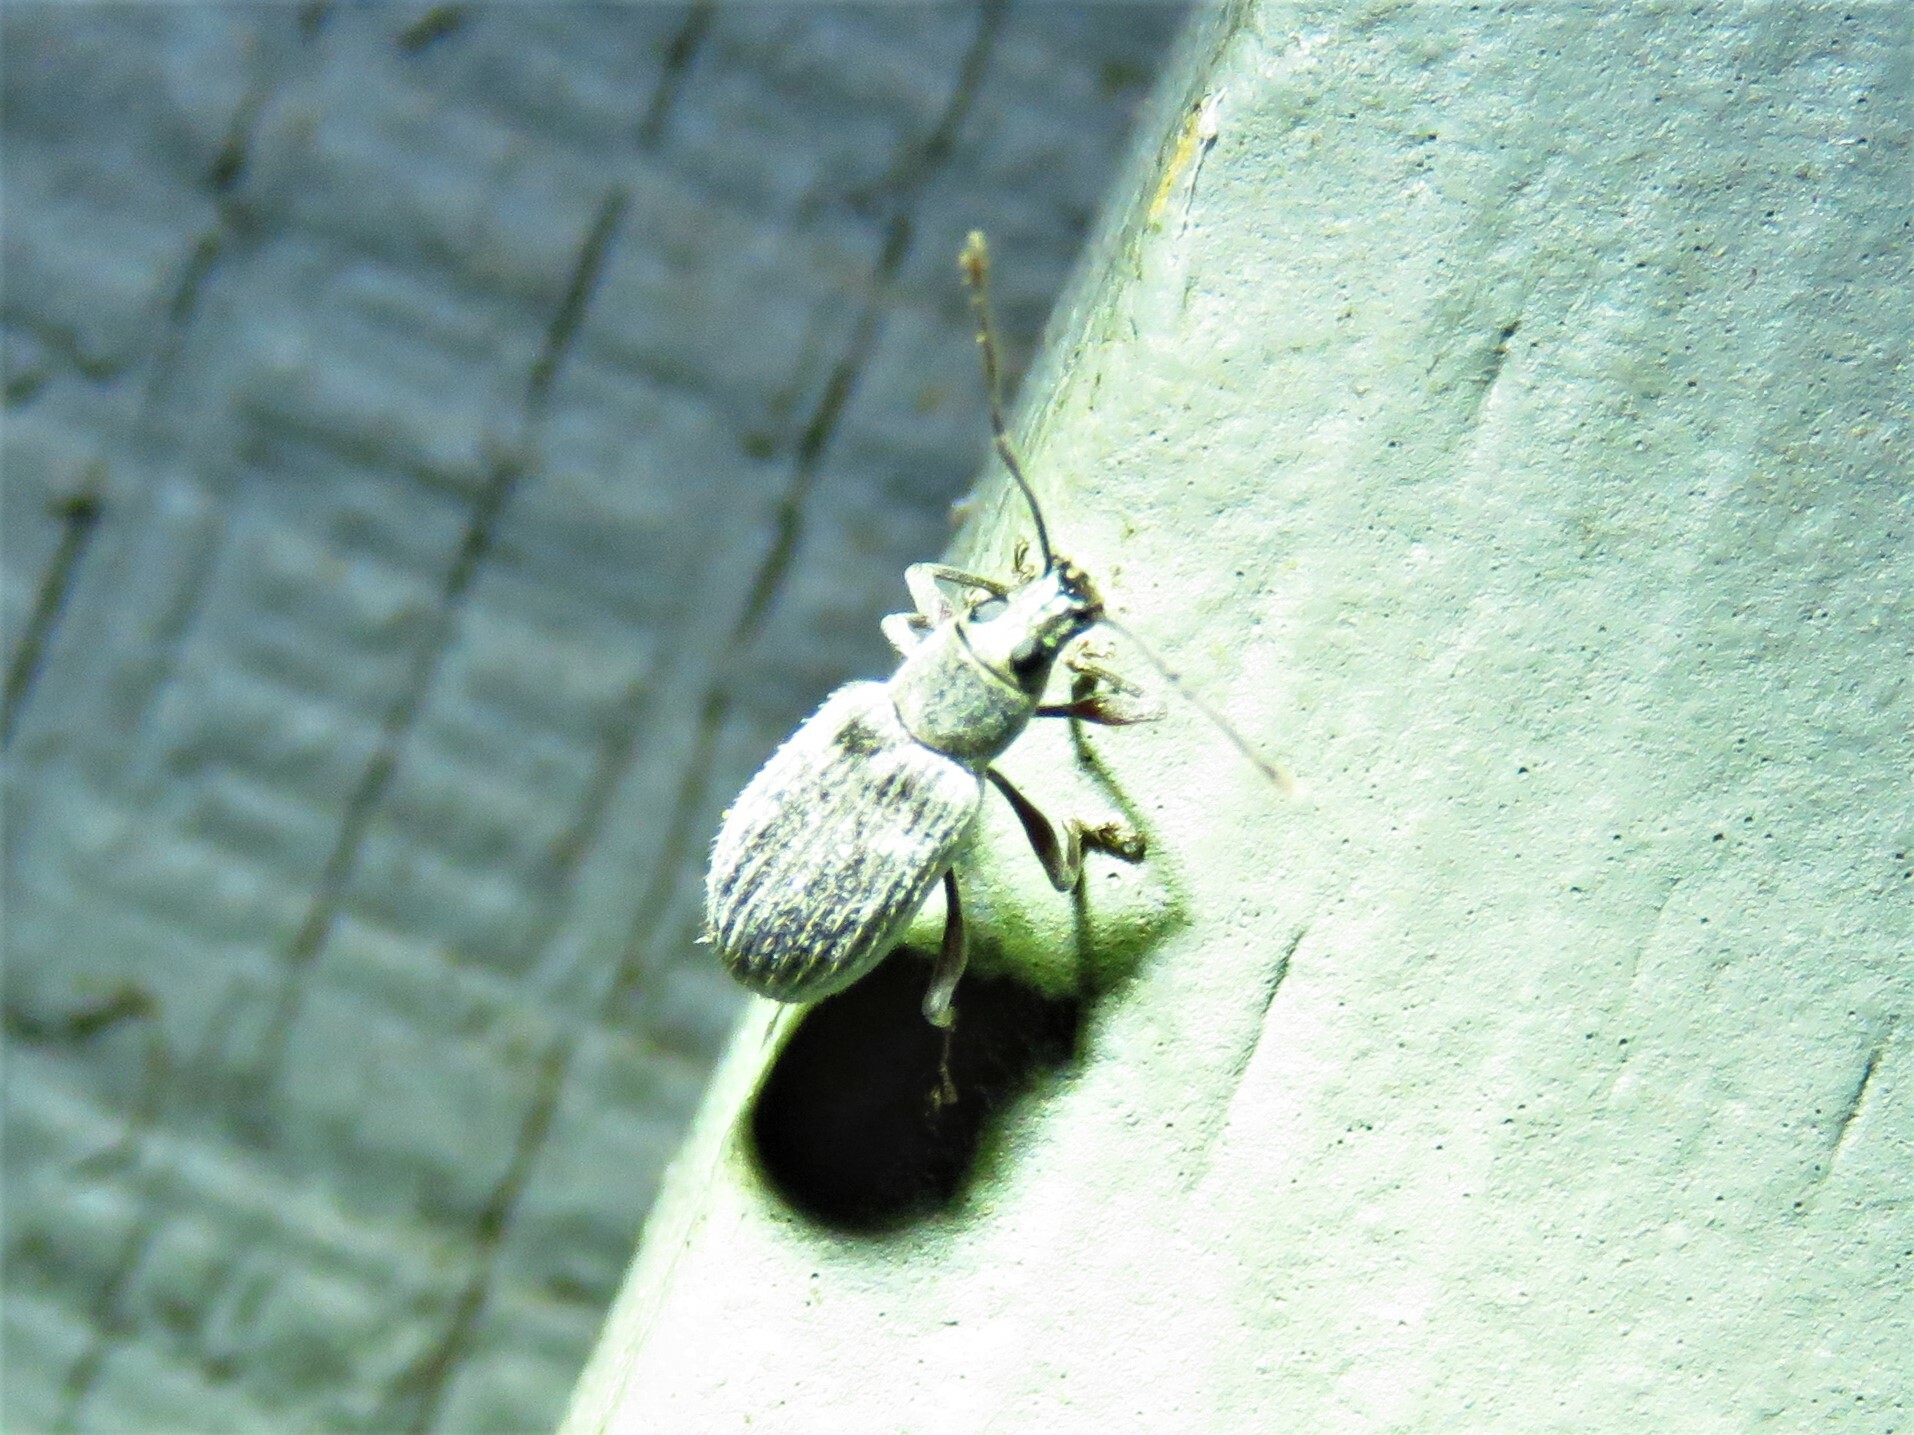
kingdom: Animalia
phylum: Arthropoda
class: Insecta
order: Coleoptera
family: Curculionidae
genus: Cyrtepistomus
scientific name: Cyrtepistomus castaneus
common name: Weevil
